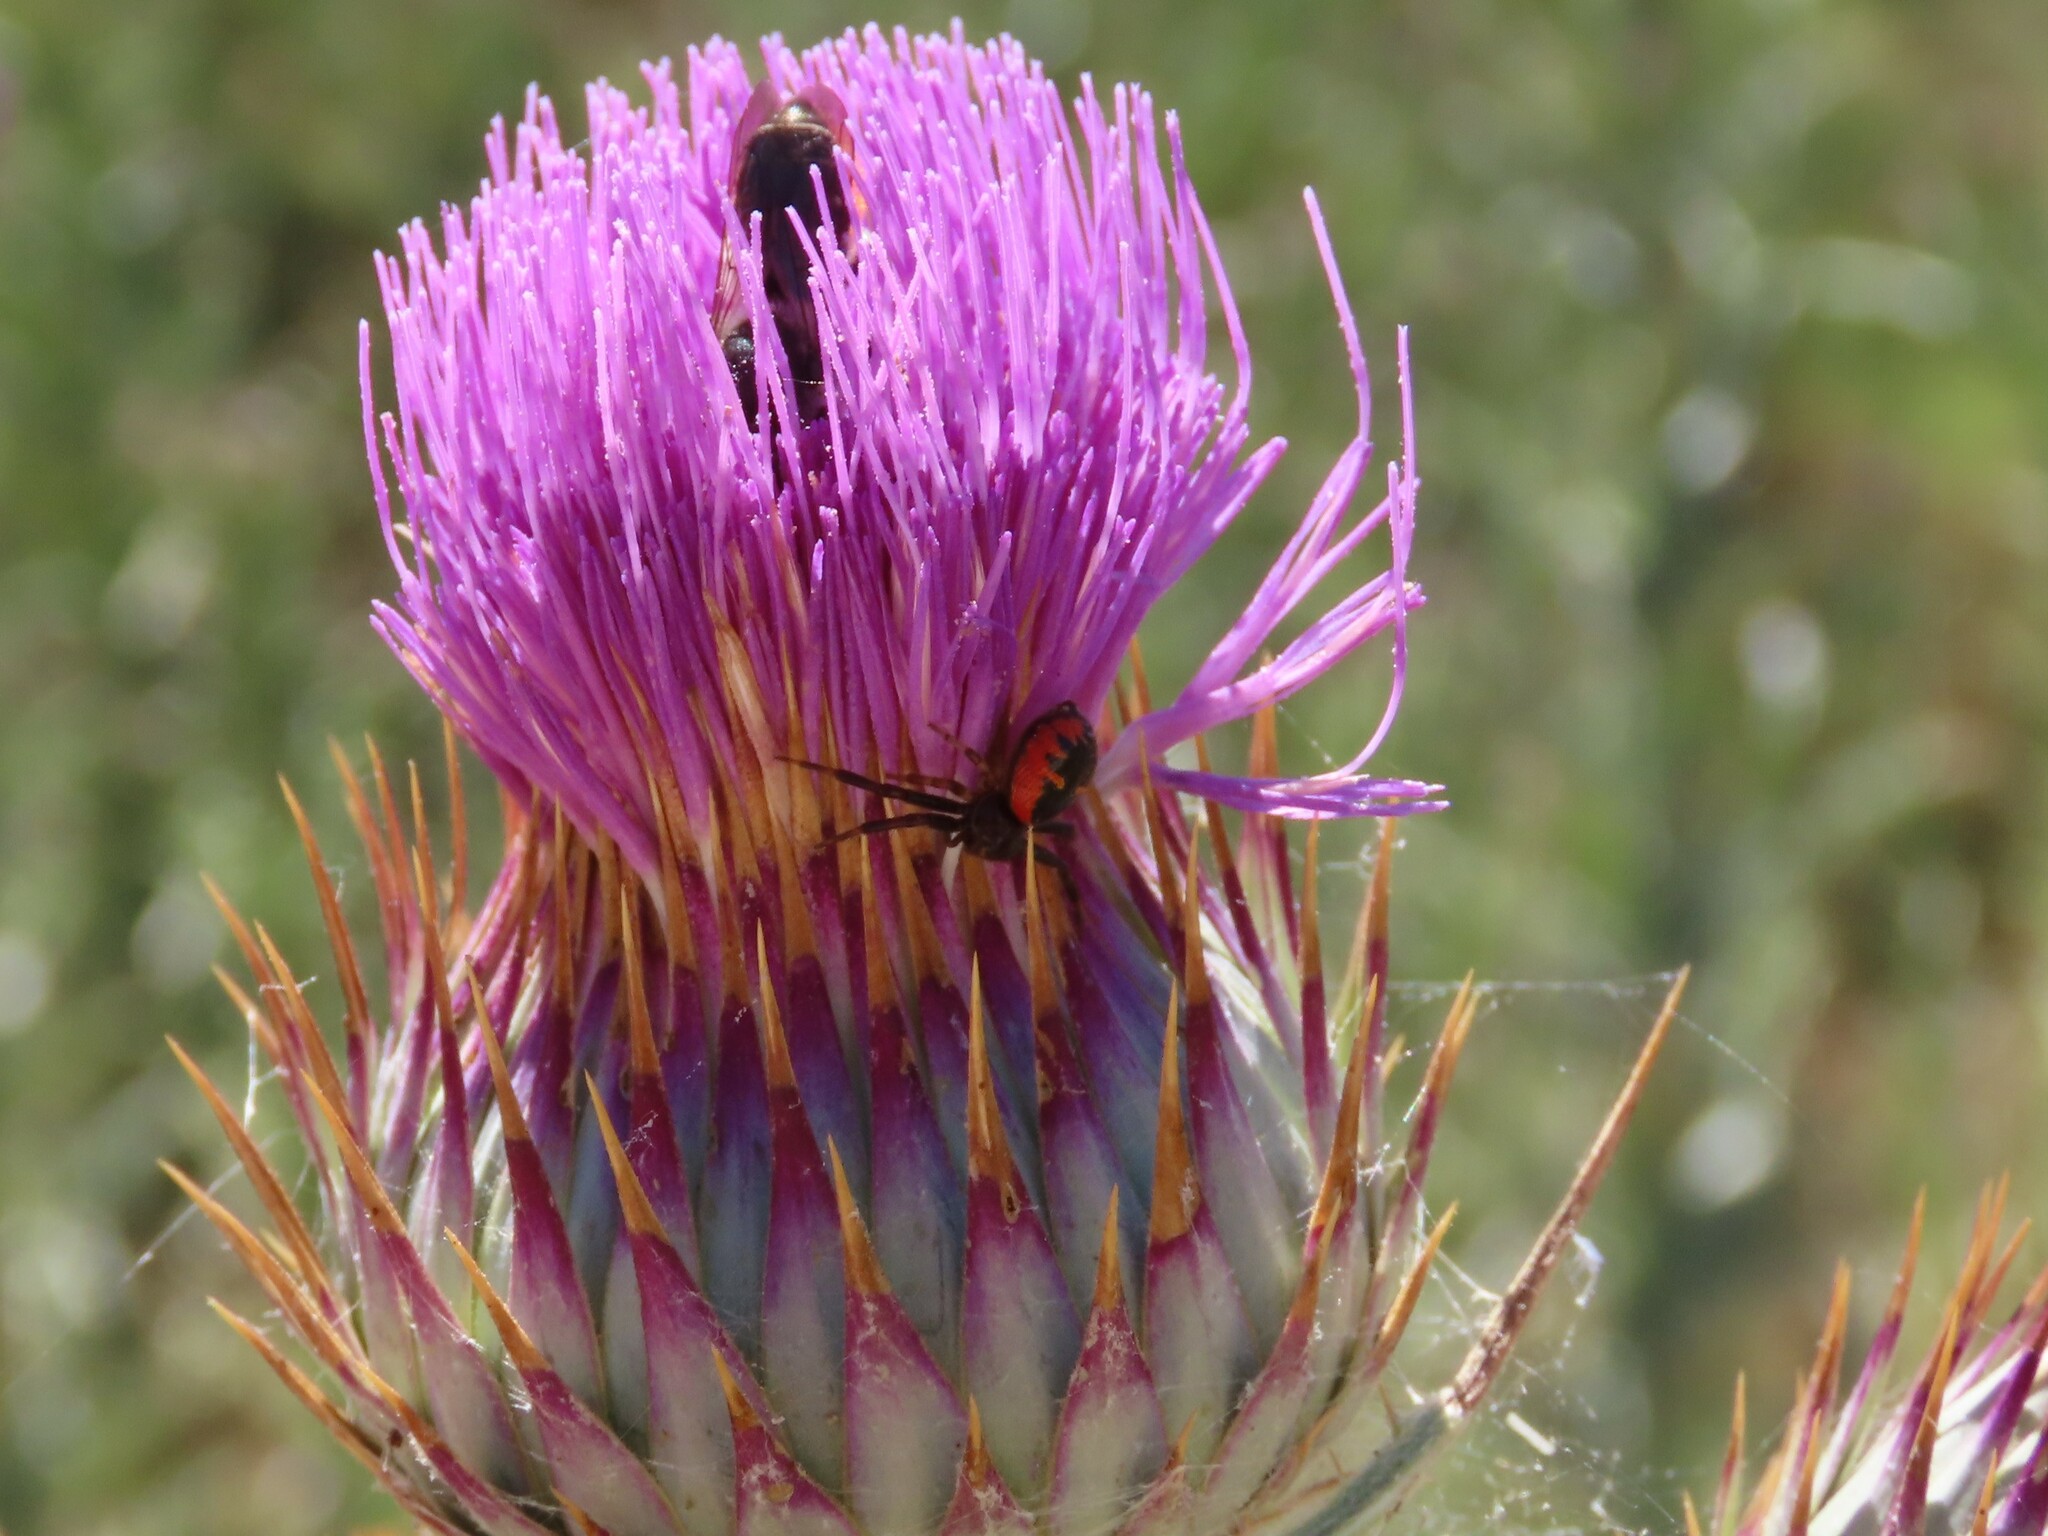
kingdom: Animalia
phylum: Arthropoda
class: Arachnida
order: Araneae
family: Thomisidae
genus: Synema
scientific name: Synema globosum
